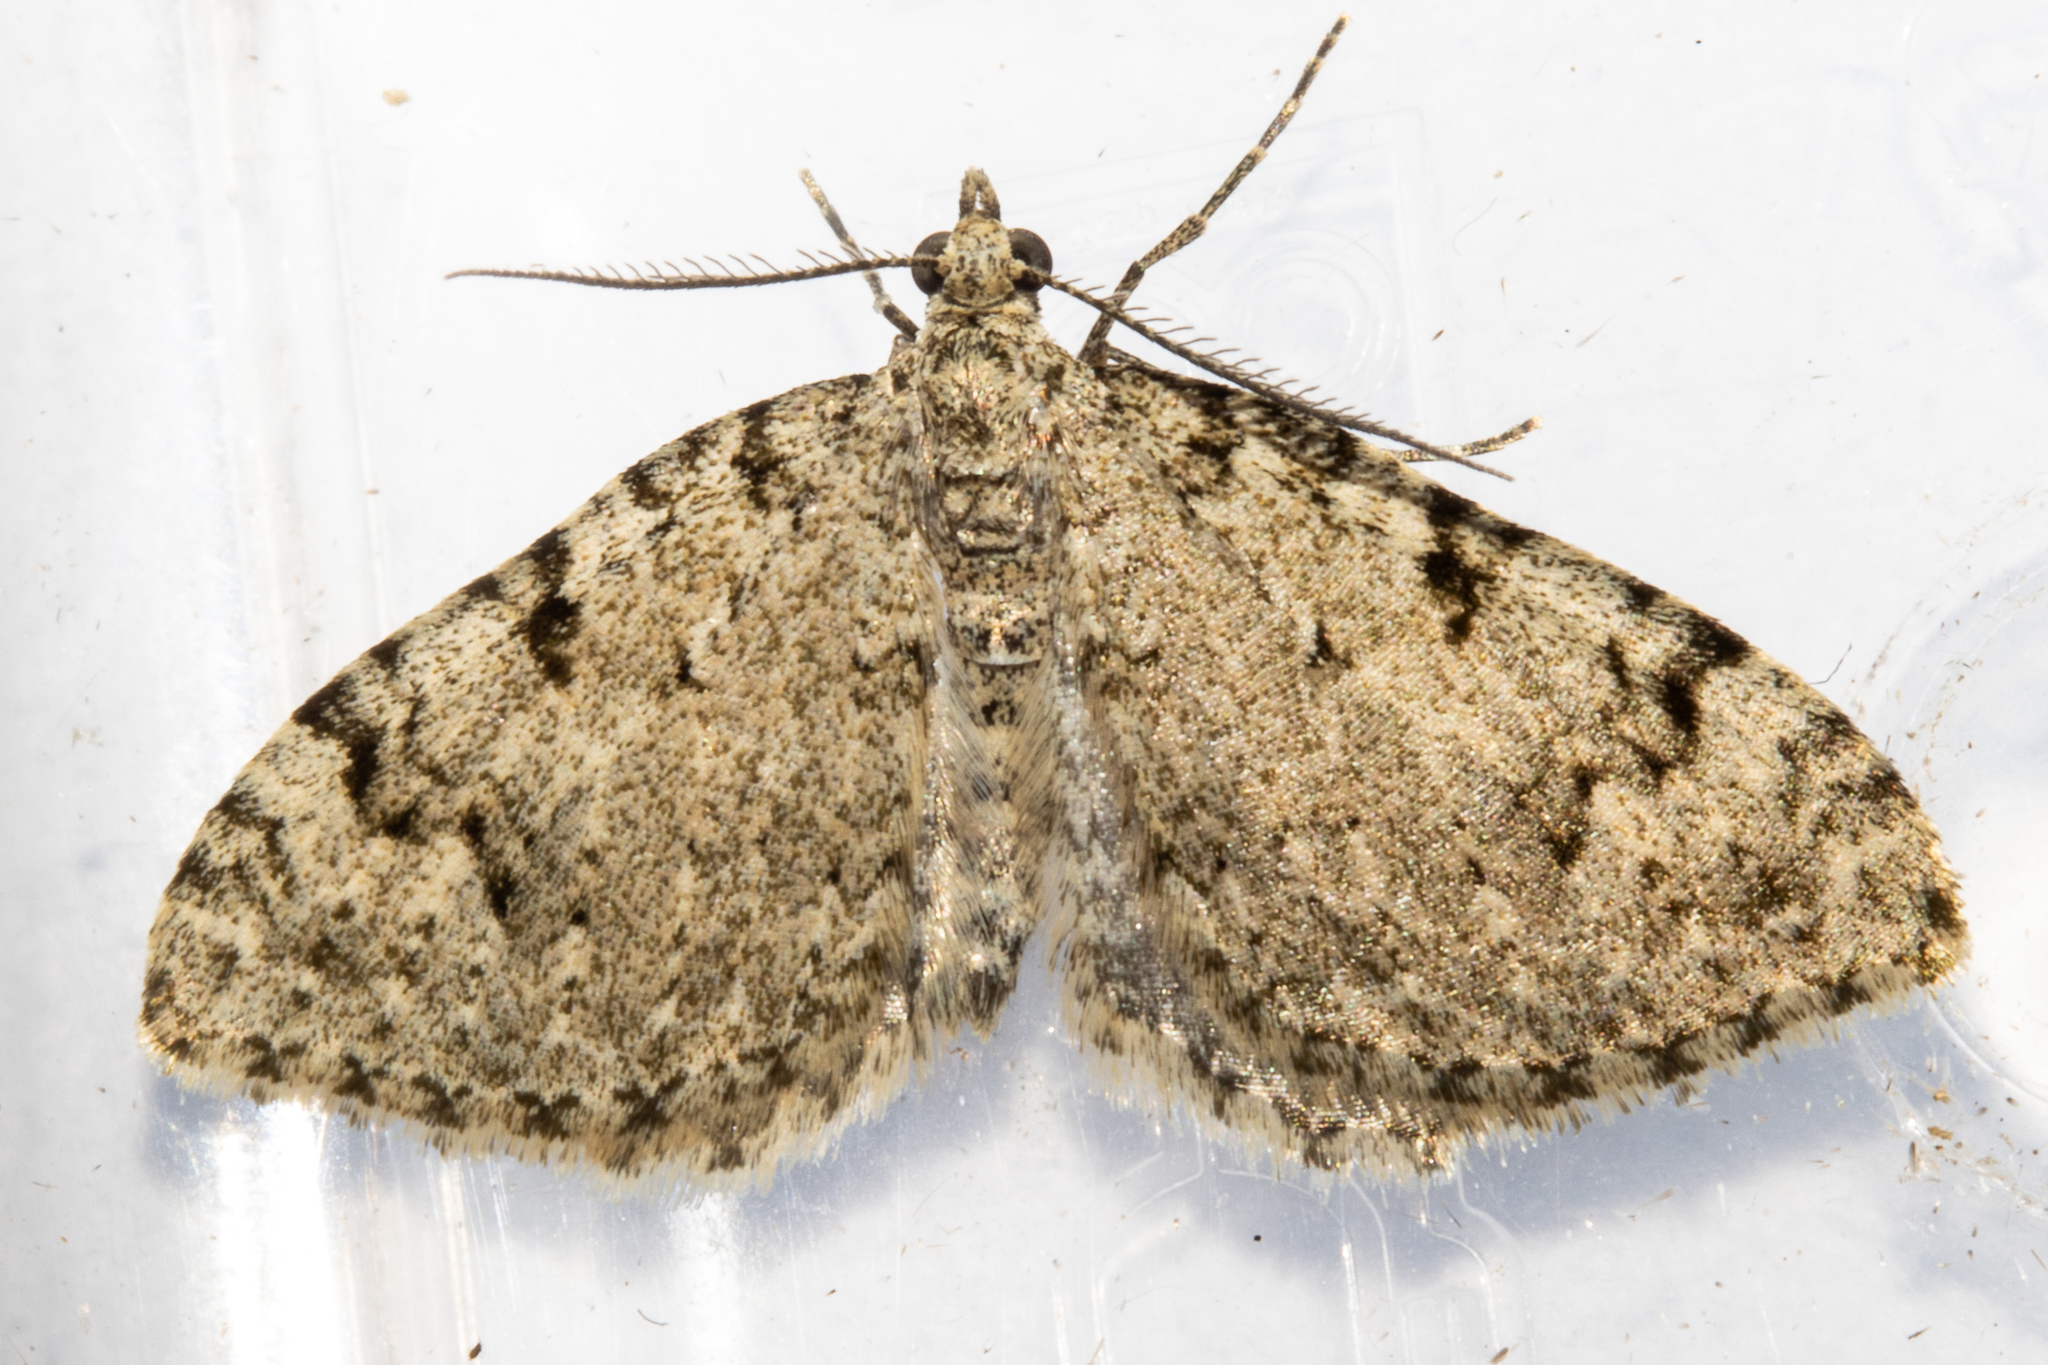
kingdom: Animalia
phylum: Arthropoda
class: Insecta
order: Lepidoptera
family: Geometridae
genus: Helastia
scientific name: Helastia cinerearia
